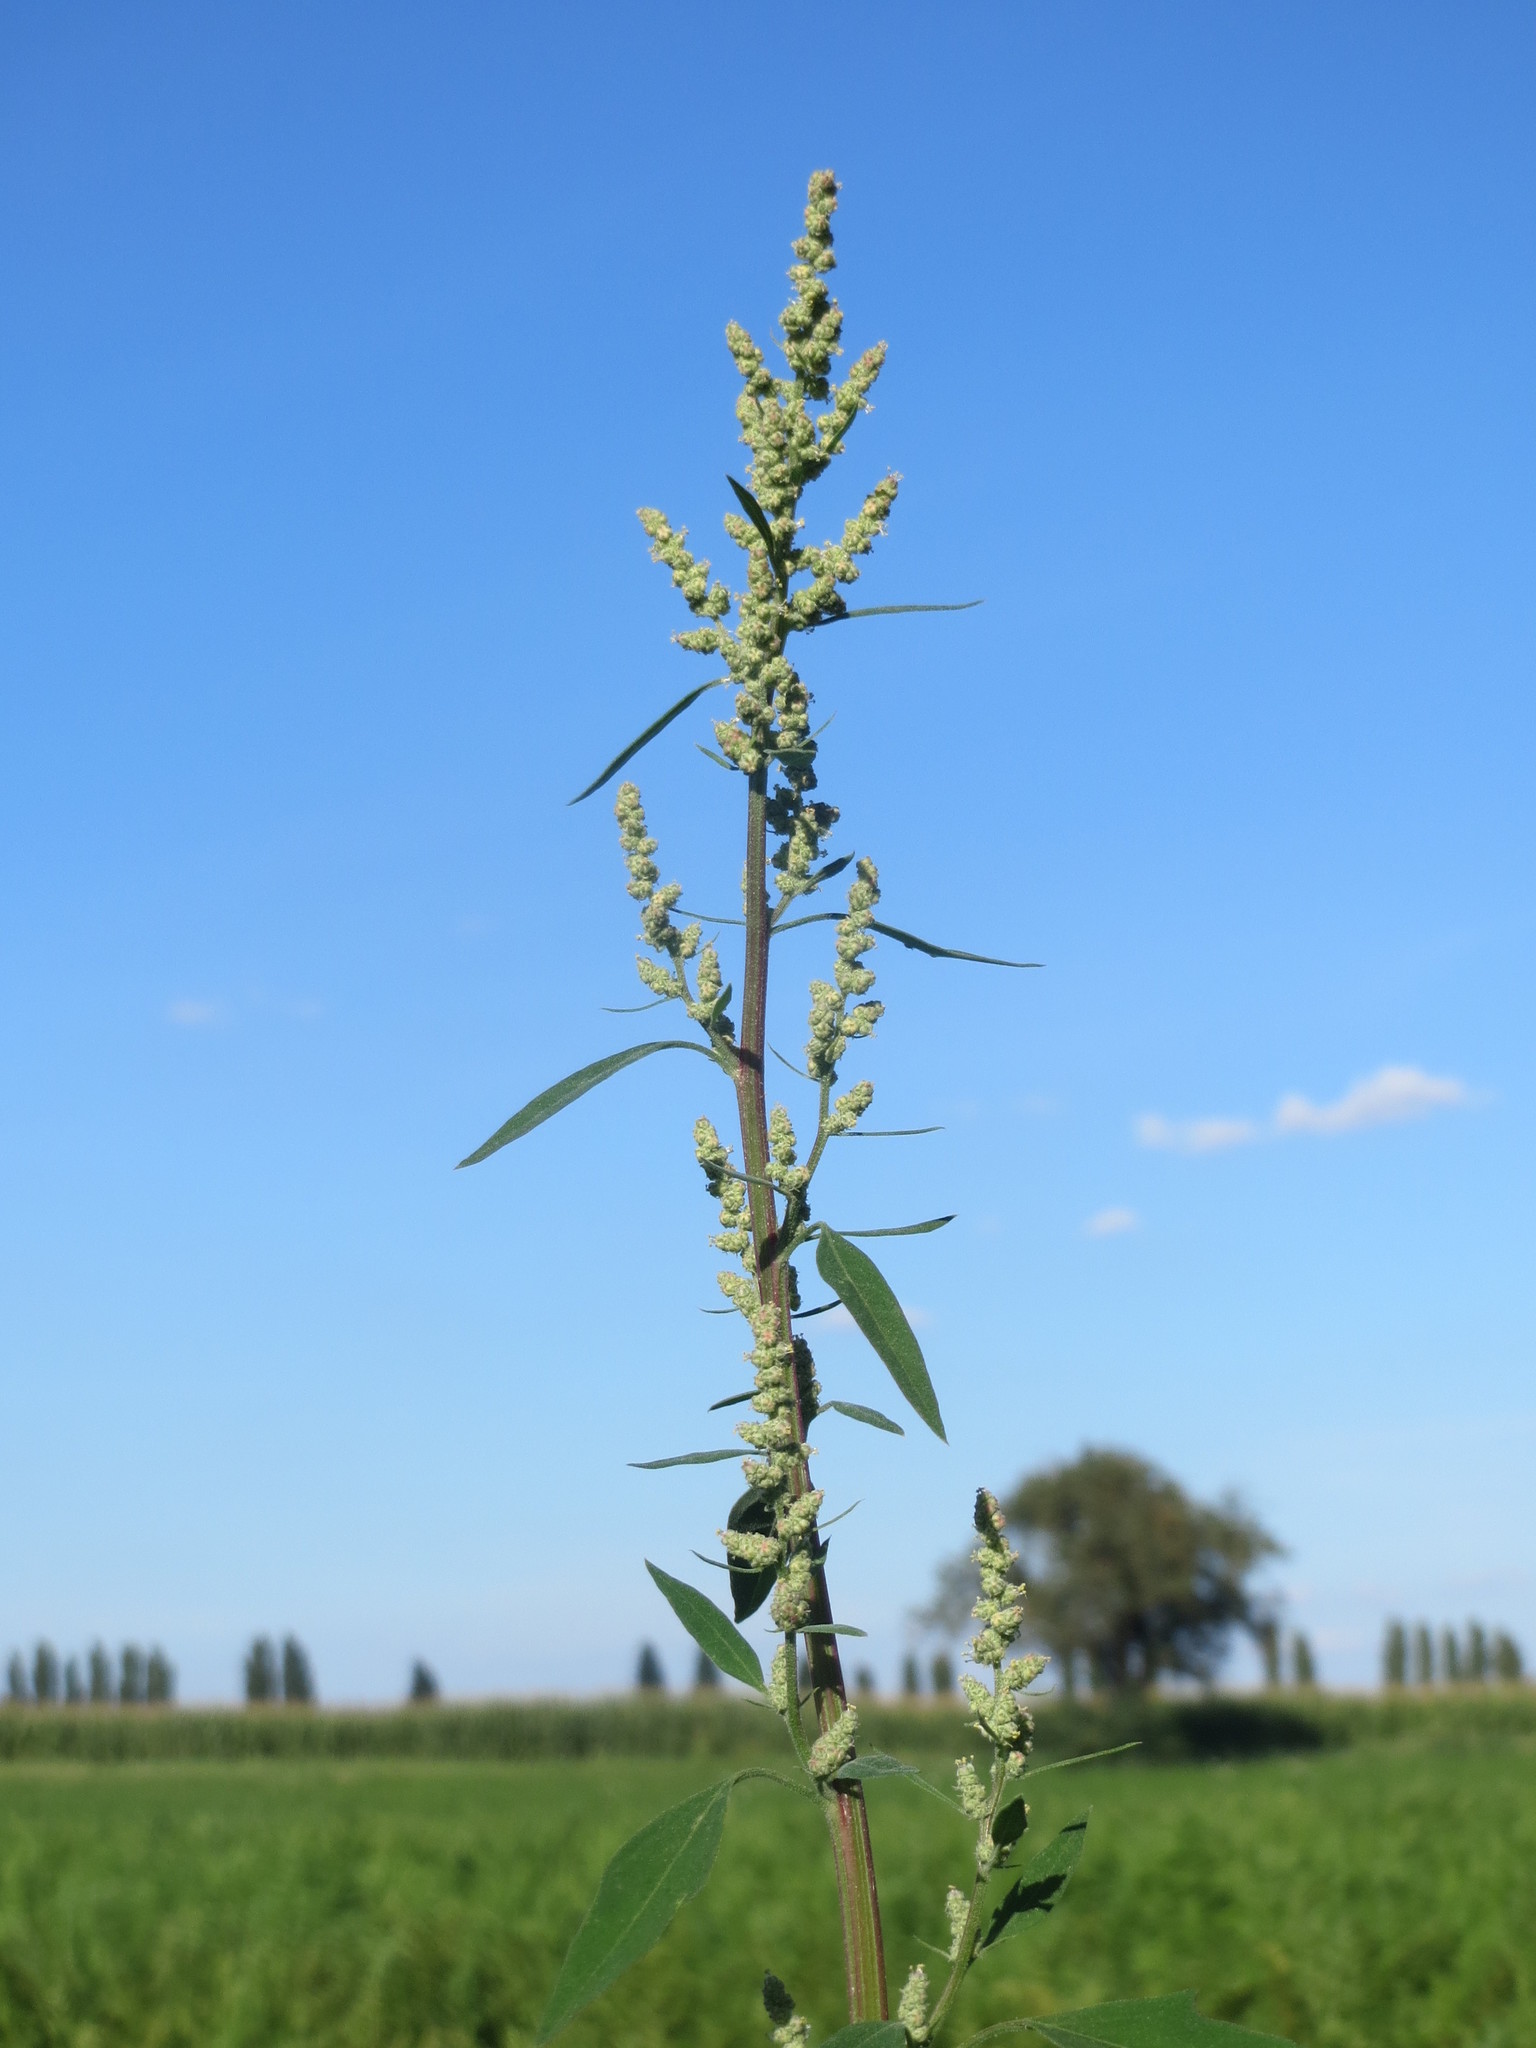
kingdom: Plantae
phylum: Tracheophyta
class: Magnoliopsida
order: Caryophyllales
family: Amaranthaceae
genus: Chenopodium
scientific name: Chenopodium album
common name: Fat-hen
